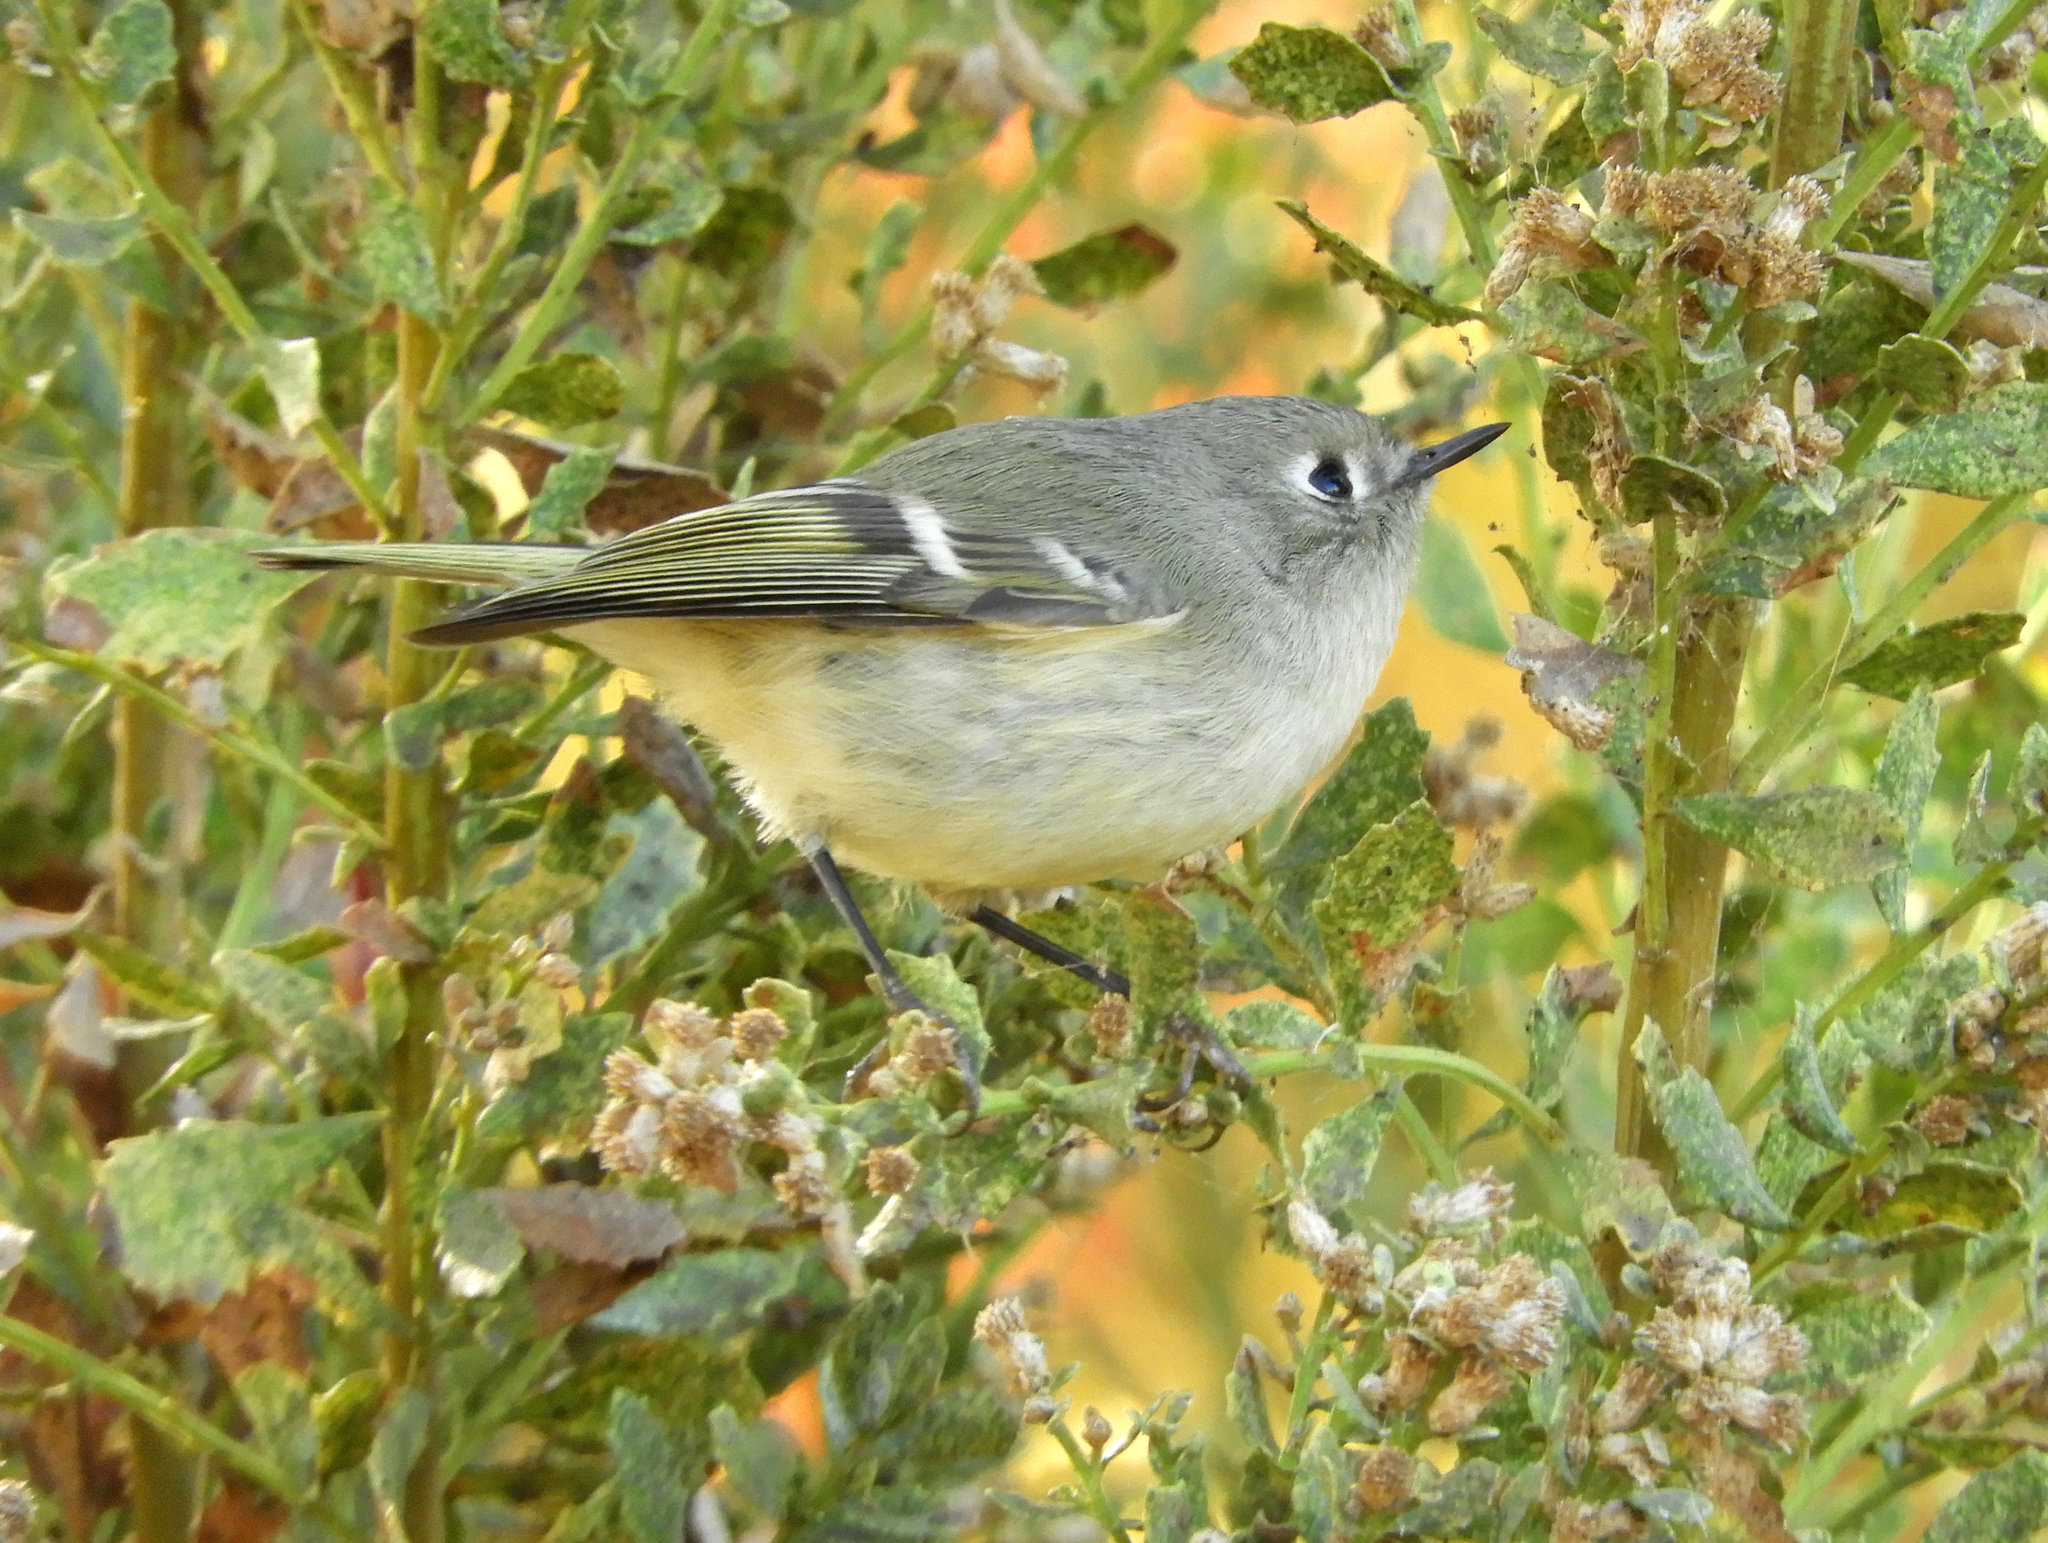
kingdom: Animalia
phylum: Chordata
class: Aves
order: Passeriformes
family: Regulidae
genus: Regulus
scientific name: Regulus calendula
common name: Ruby-crowned kinglet
